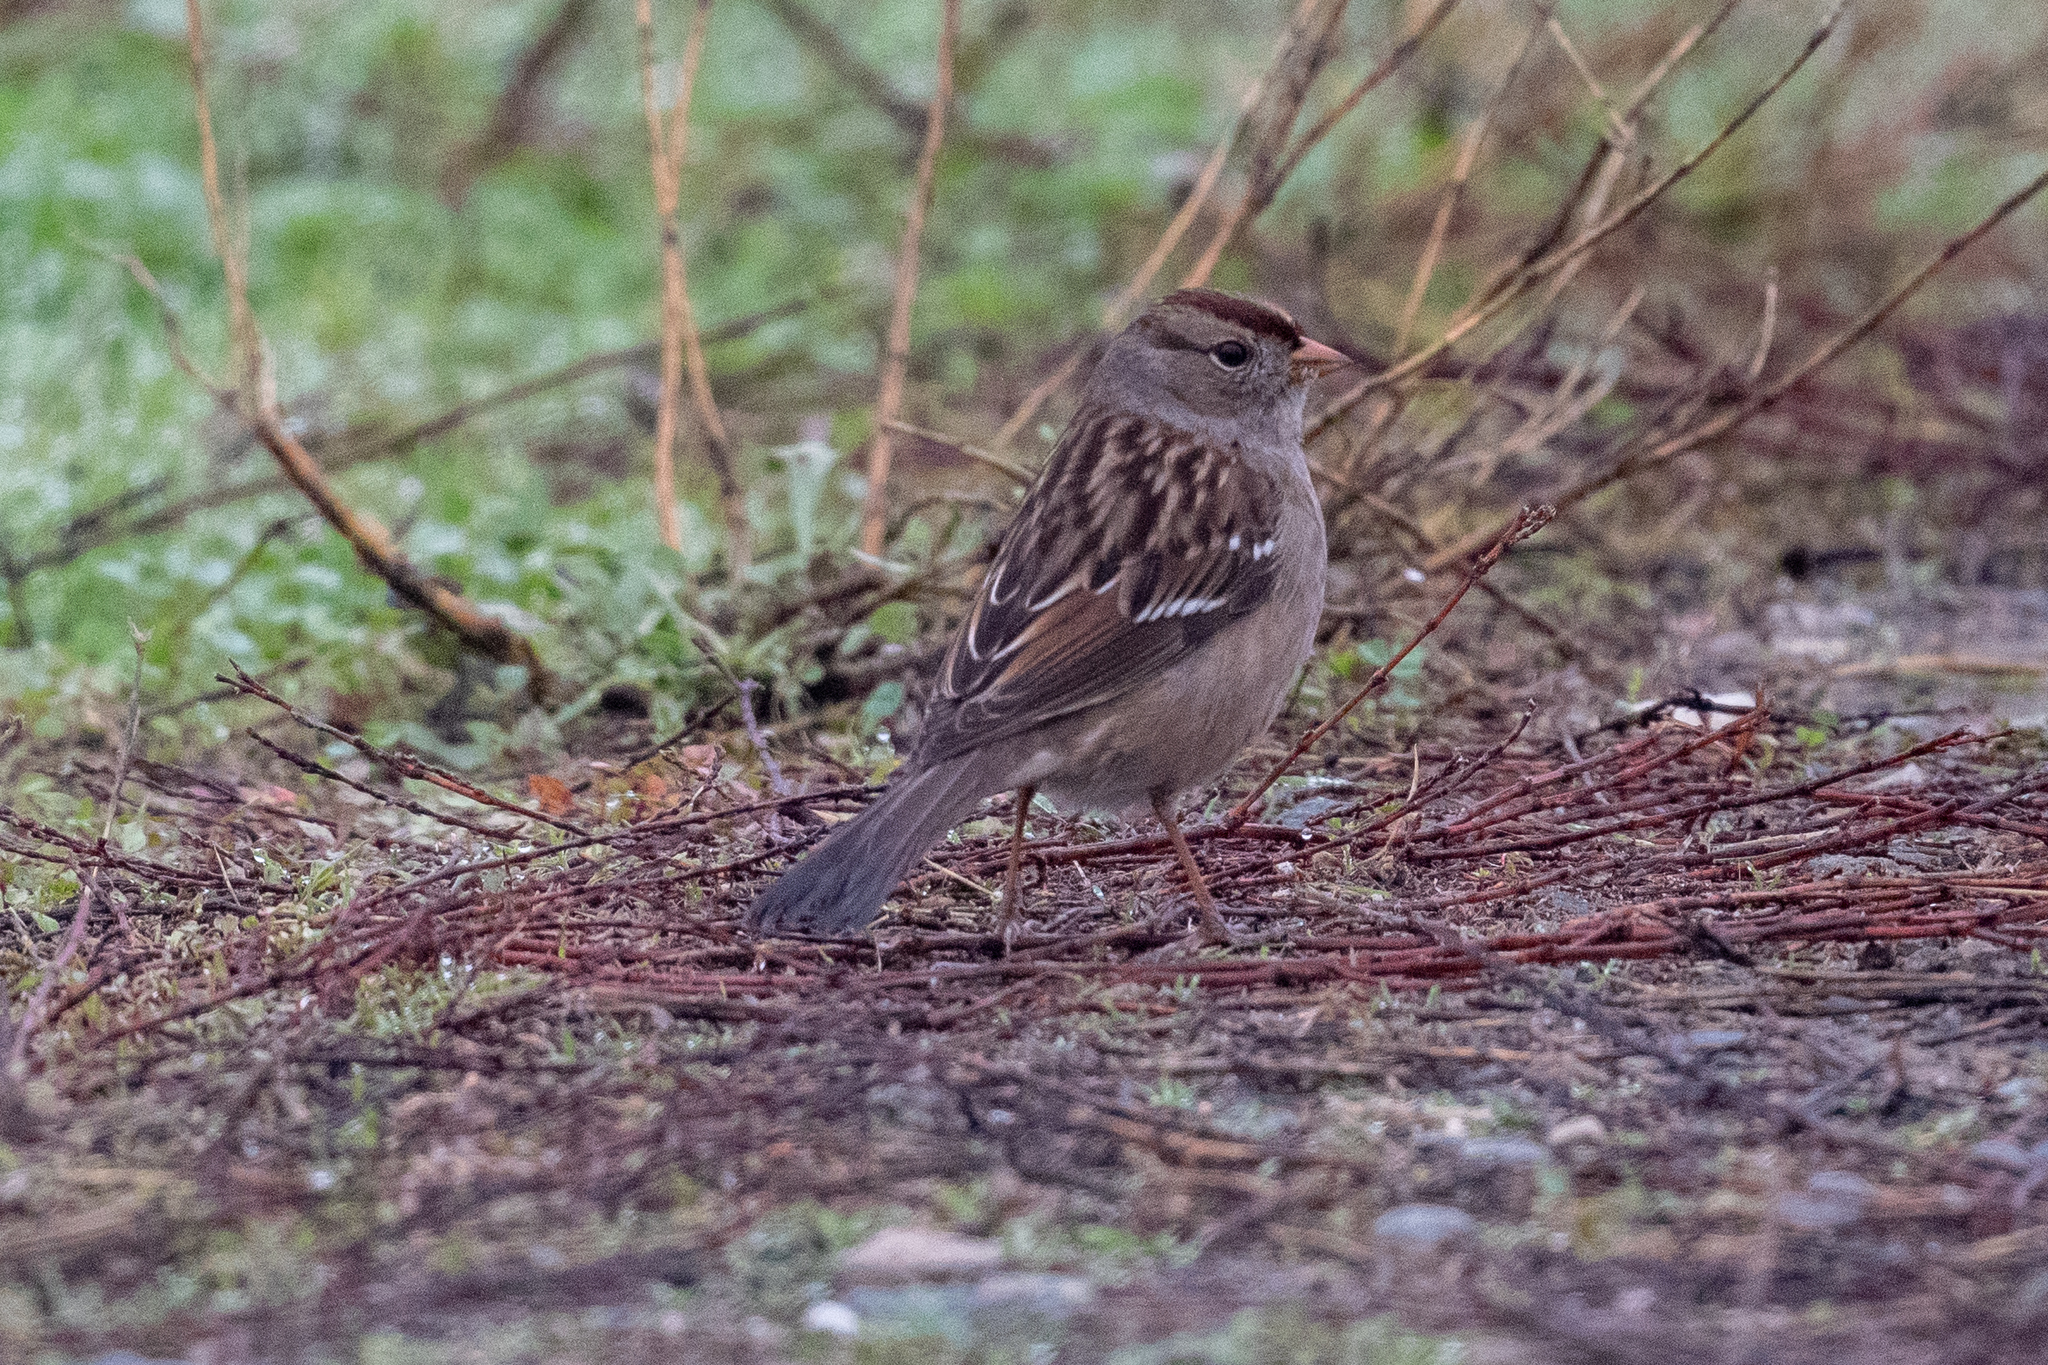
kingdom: Animalia
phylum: Chordata
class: Aves
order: Passeriformes
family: Passerellidae
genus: Zonotrichia
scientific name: Zonotrichia leucophrys
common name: White-crowned sparrow
